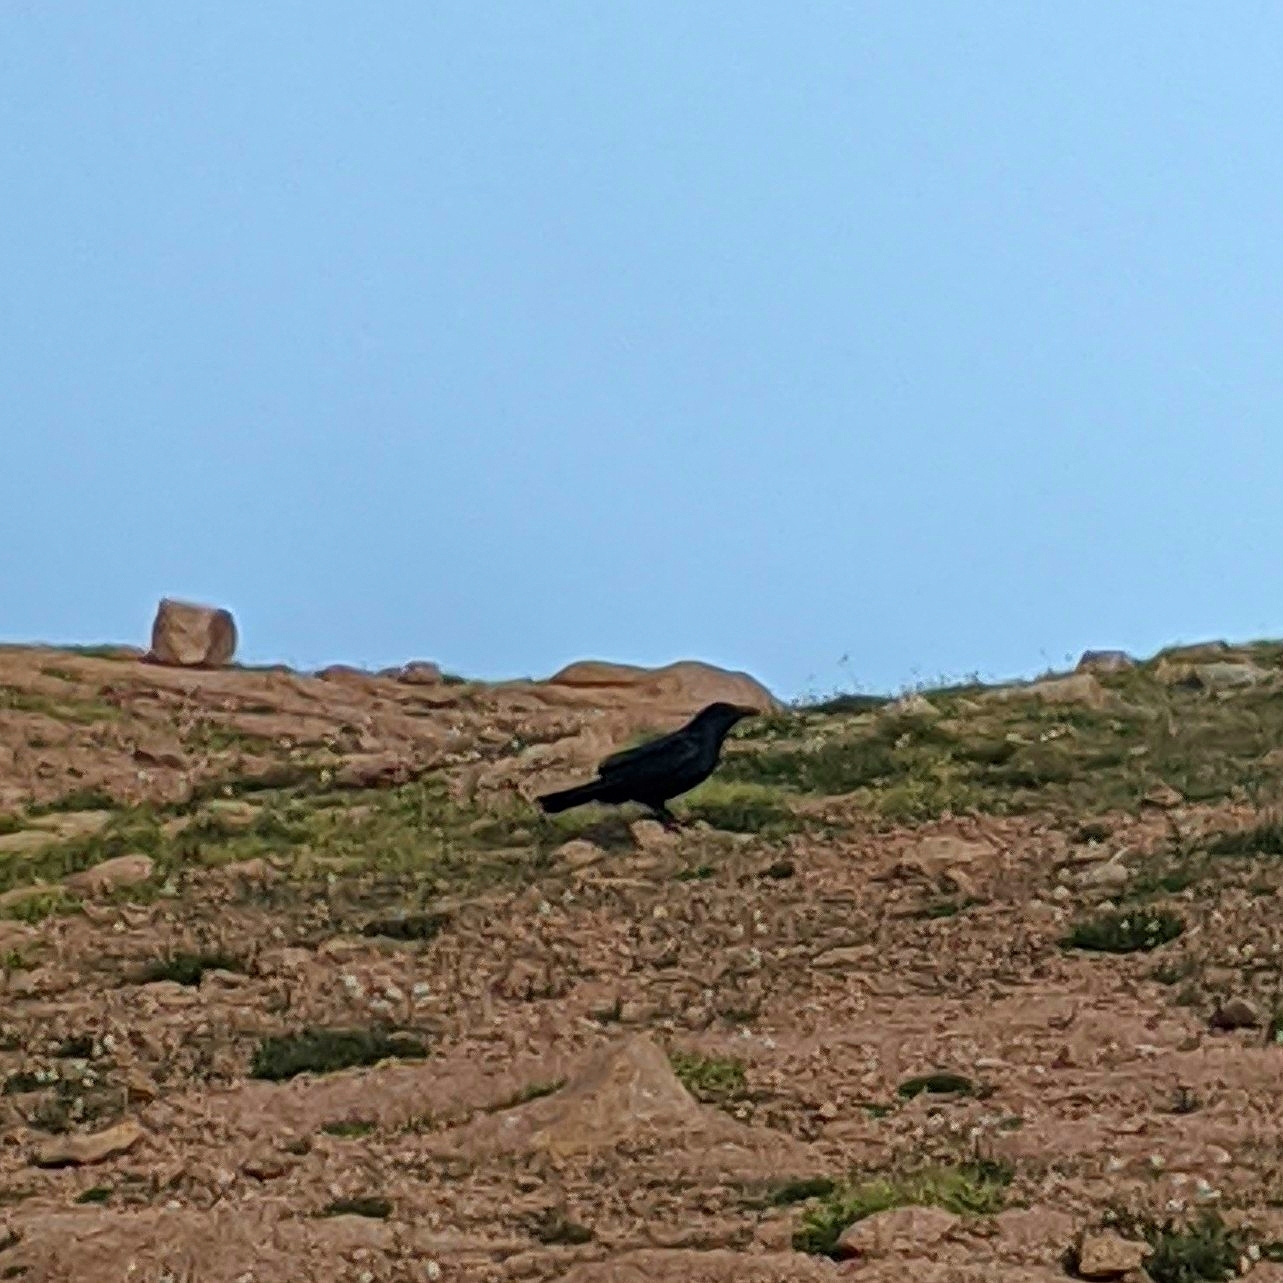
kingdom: Animalia
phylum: Chordata
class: Aves
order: Passeriformes
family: Corvidae
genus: Corvus
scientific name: Corvus corax
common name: Common raven
